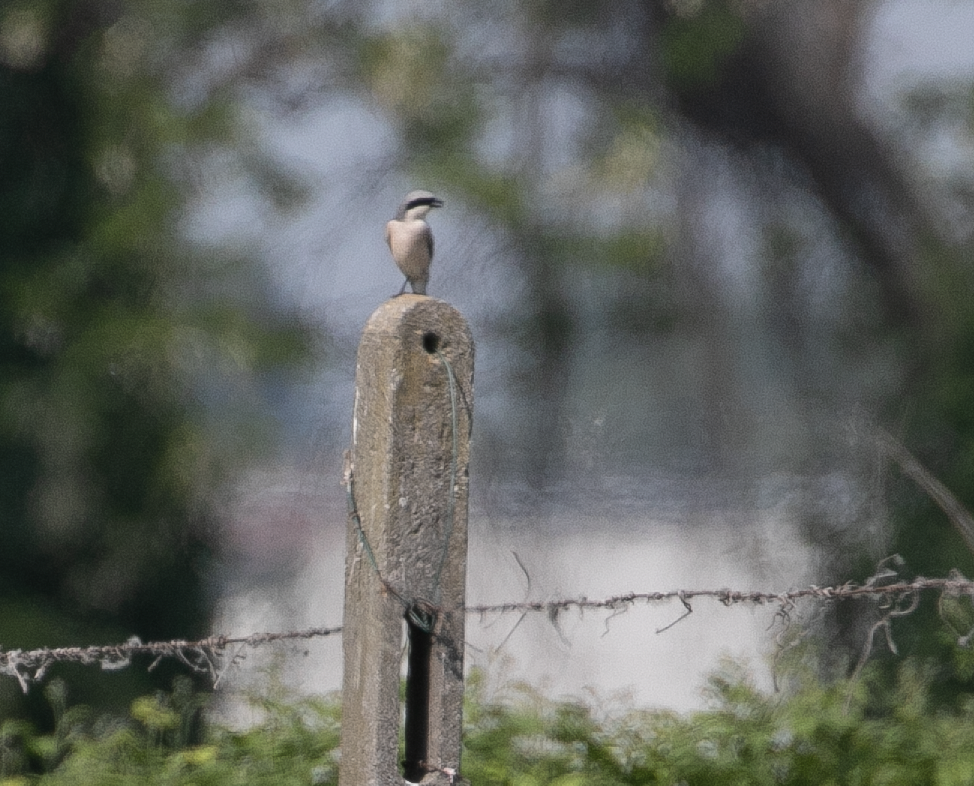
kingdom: Animalia
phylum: Chordata
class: Aves
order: Passeriformes
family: Laniidae
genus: Lanius
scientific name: Lanius collurio
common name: Red-backed shrike
